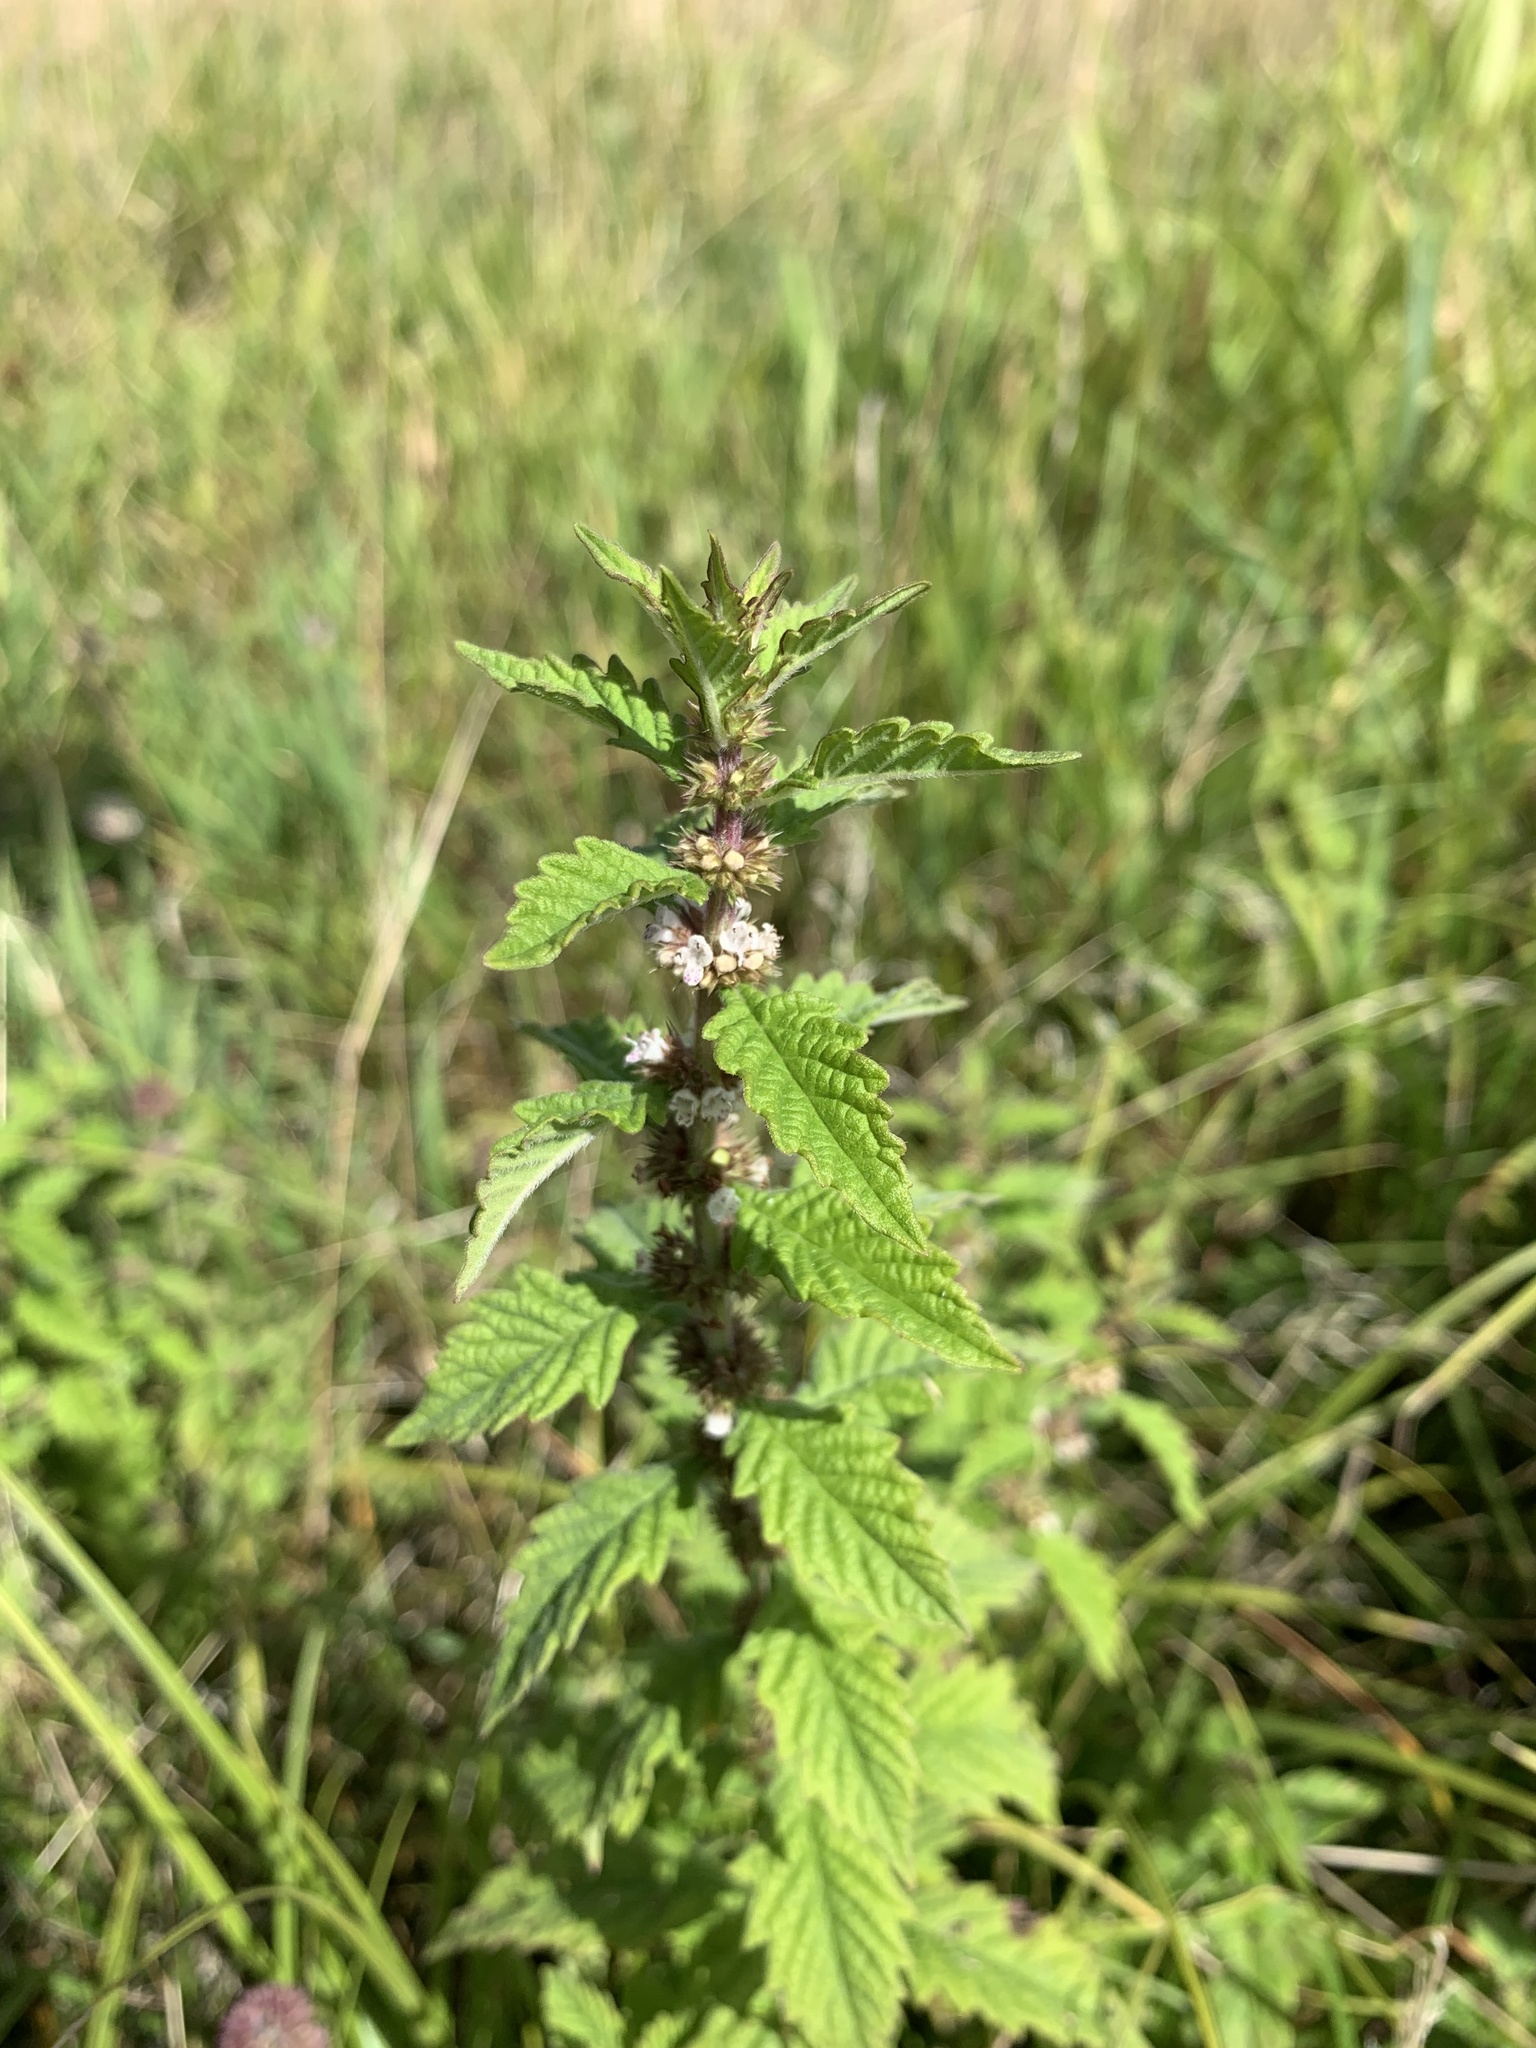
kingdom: Plantae
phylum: Tracheophyta
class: Magnoliopsida
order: Lamiales
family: Lamiaceae
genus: Lycopus
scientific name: Lycopus europaeus
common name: European bugleweed
